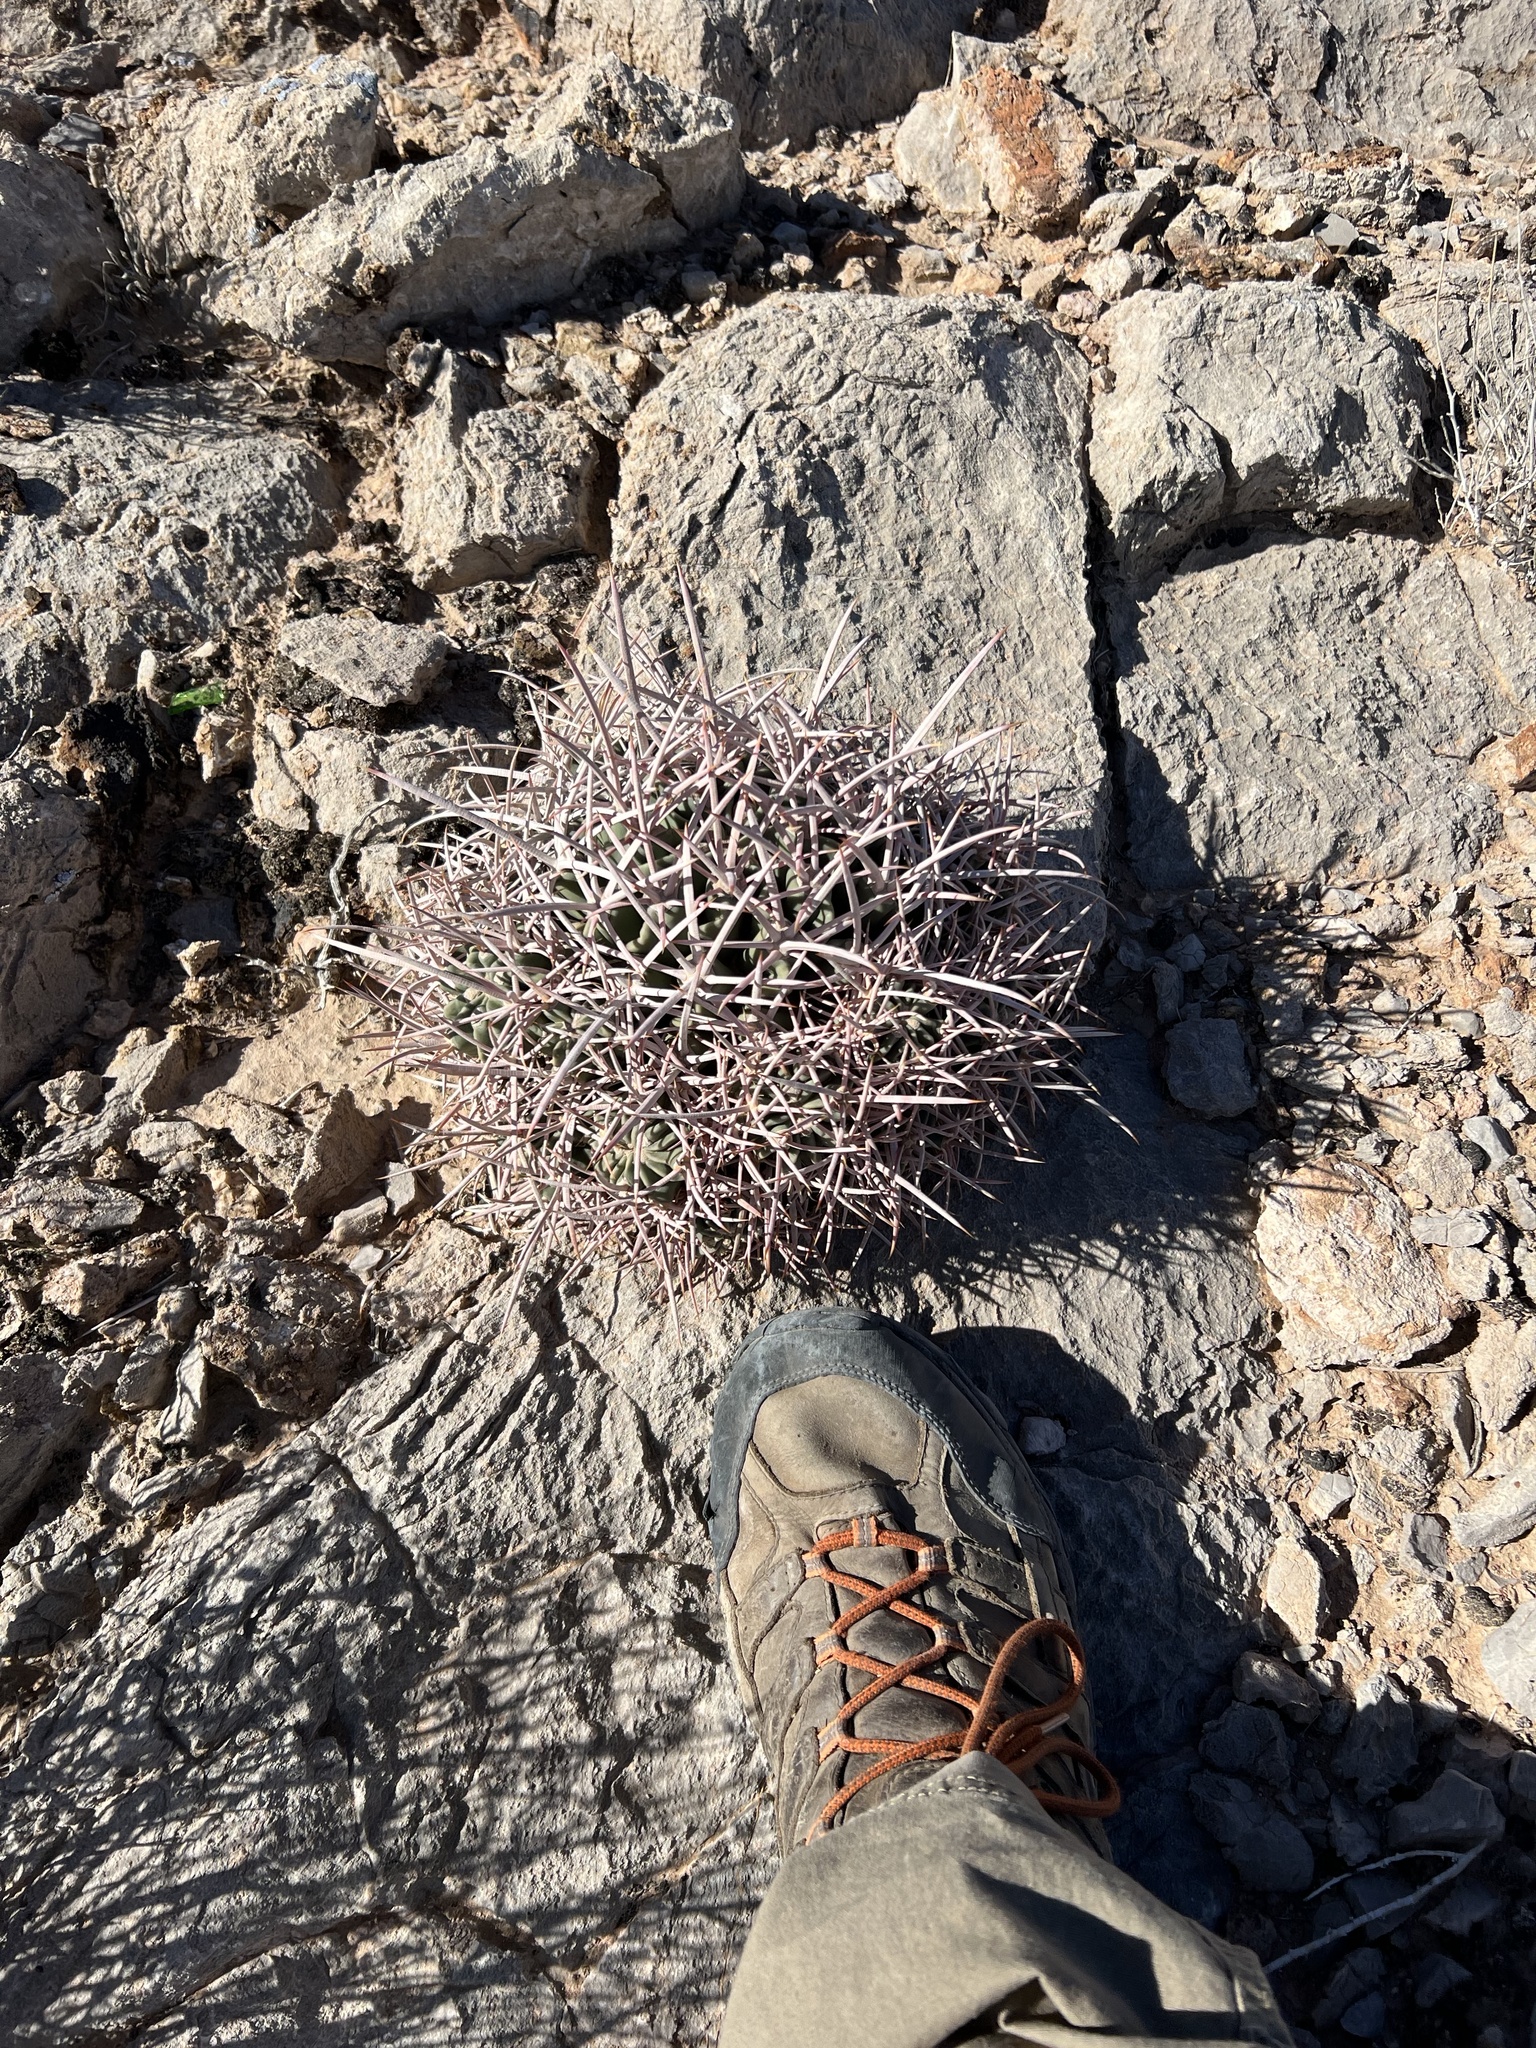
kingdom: Plantae
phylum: Tracheophyta
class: Magnoliopsida
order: Caryophyllales
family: Cactaceae
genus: Echinocactus
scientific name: Echinocactus polycephalus
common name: Cottontop cactus
